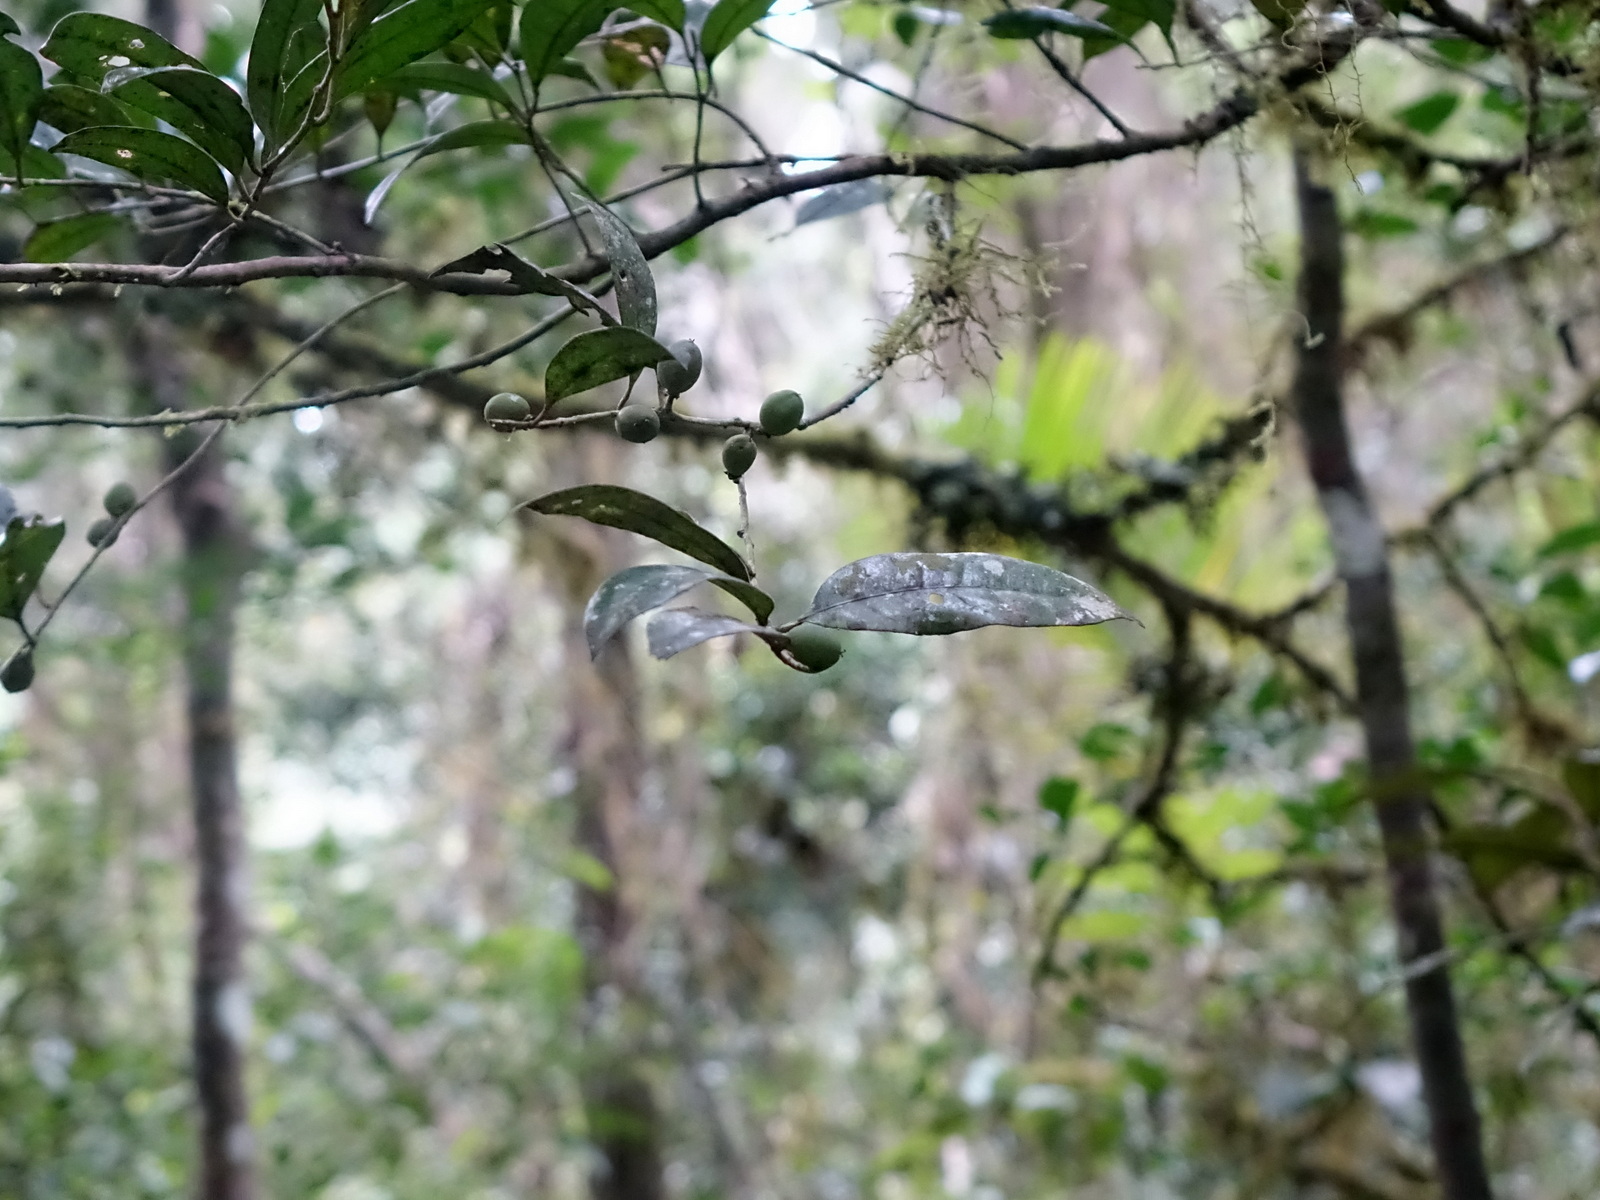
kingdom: Plantae
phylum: Tracheophyta
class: Magnoliopsida
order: Malpighiales
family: Putranjivaceae
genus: Drypetes
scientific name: Drypetes madagascariensis
